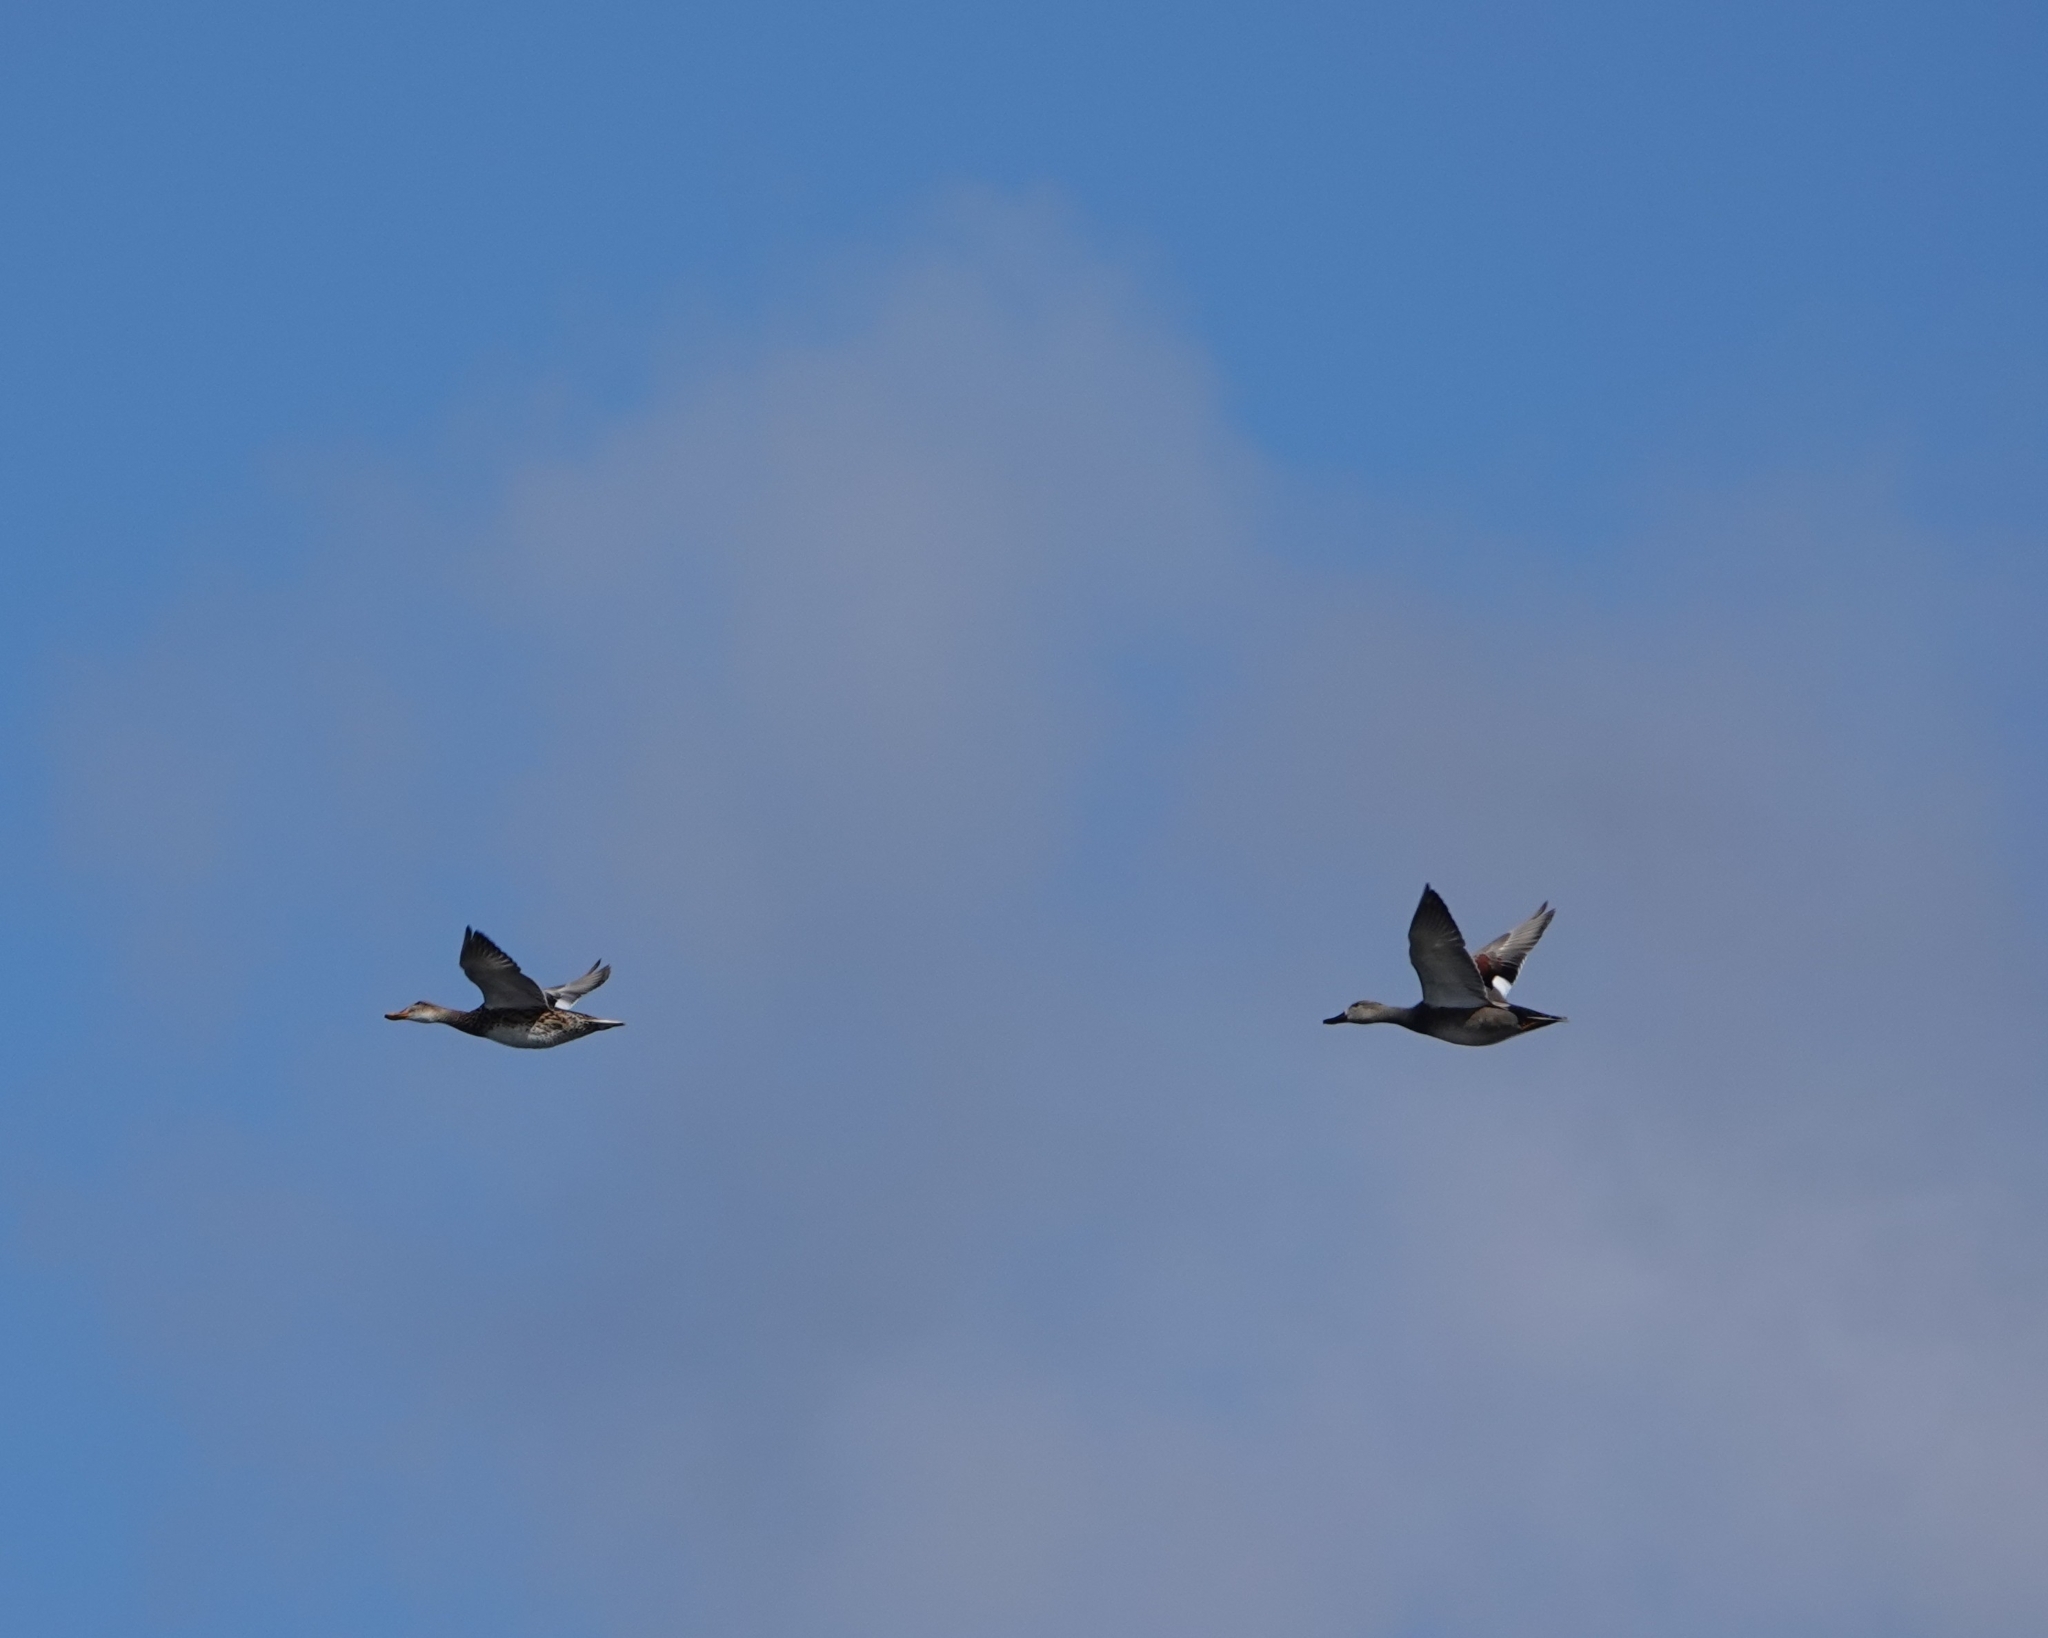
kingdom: Animalia
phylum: Chordata
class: Aves
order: Anseriformes
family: Anatidae
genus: Mareca
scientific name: Mareca strepera
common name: Gadwall
